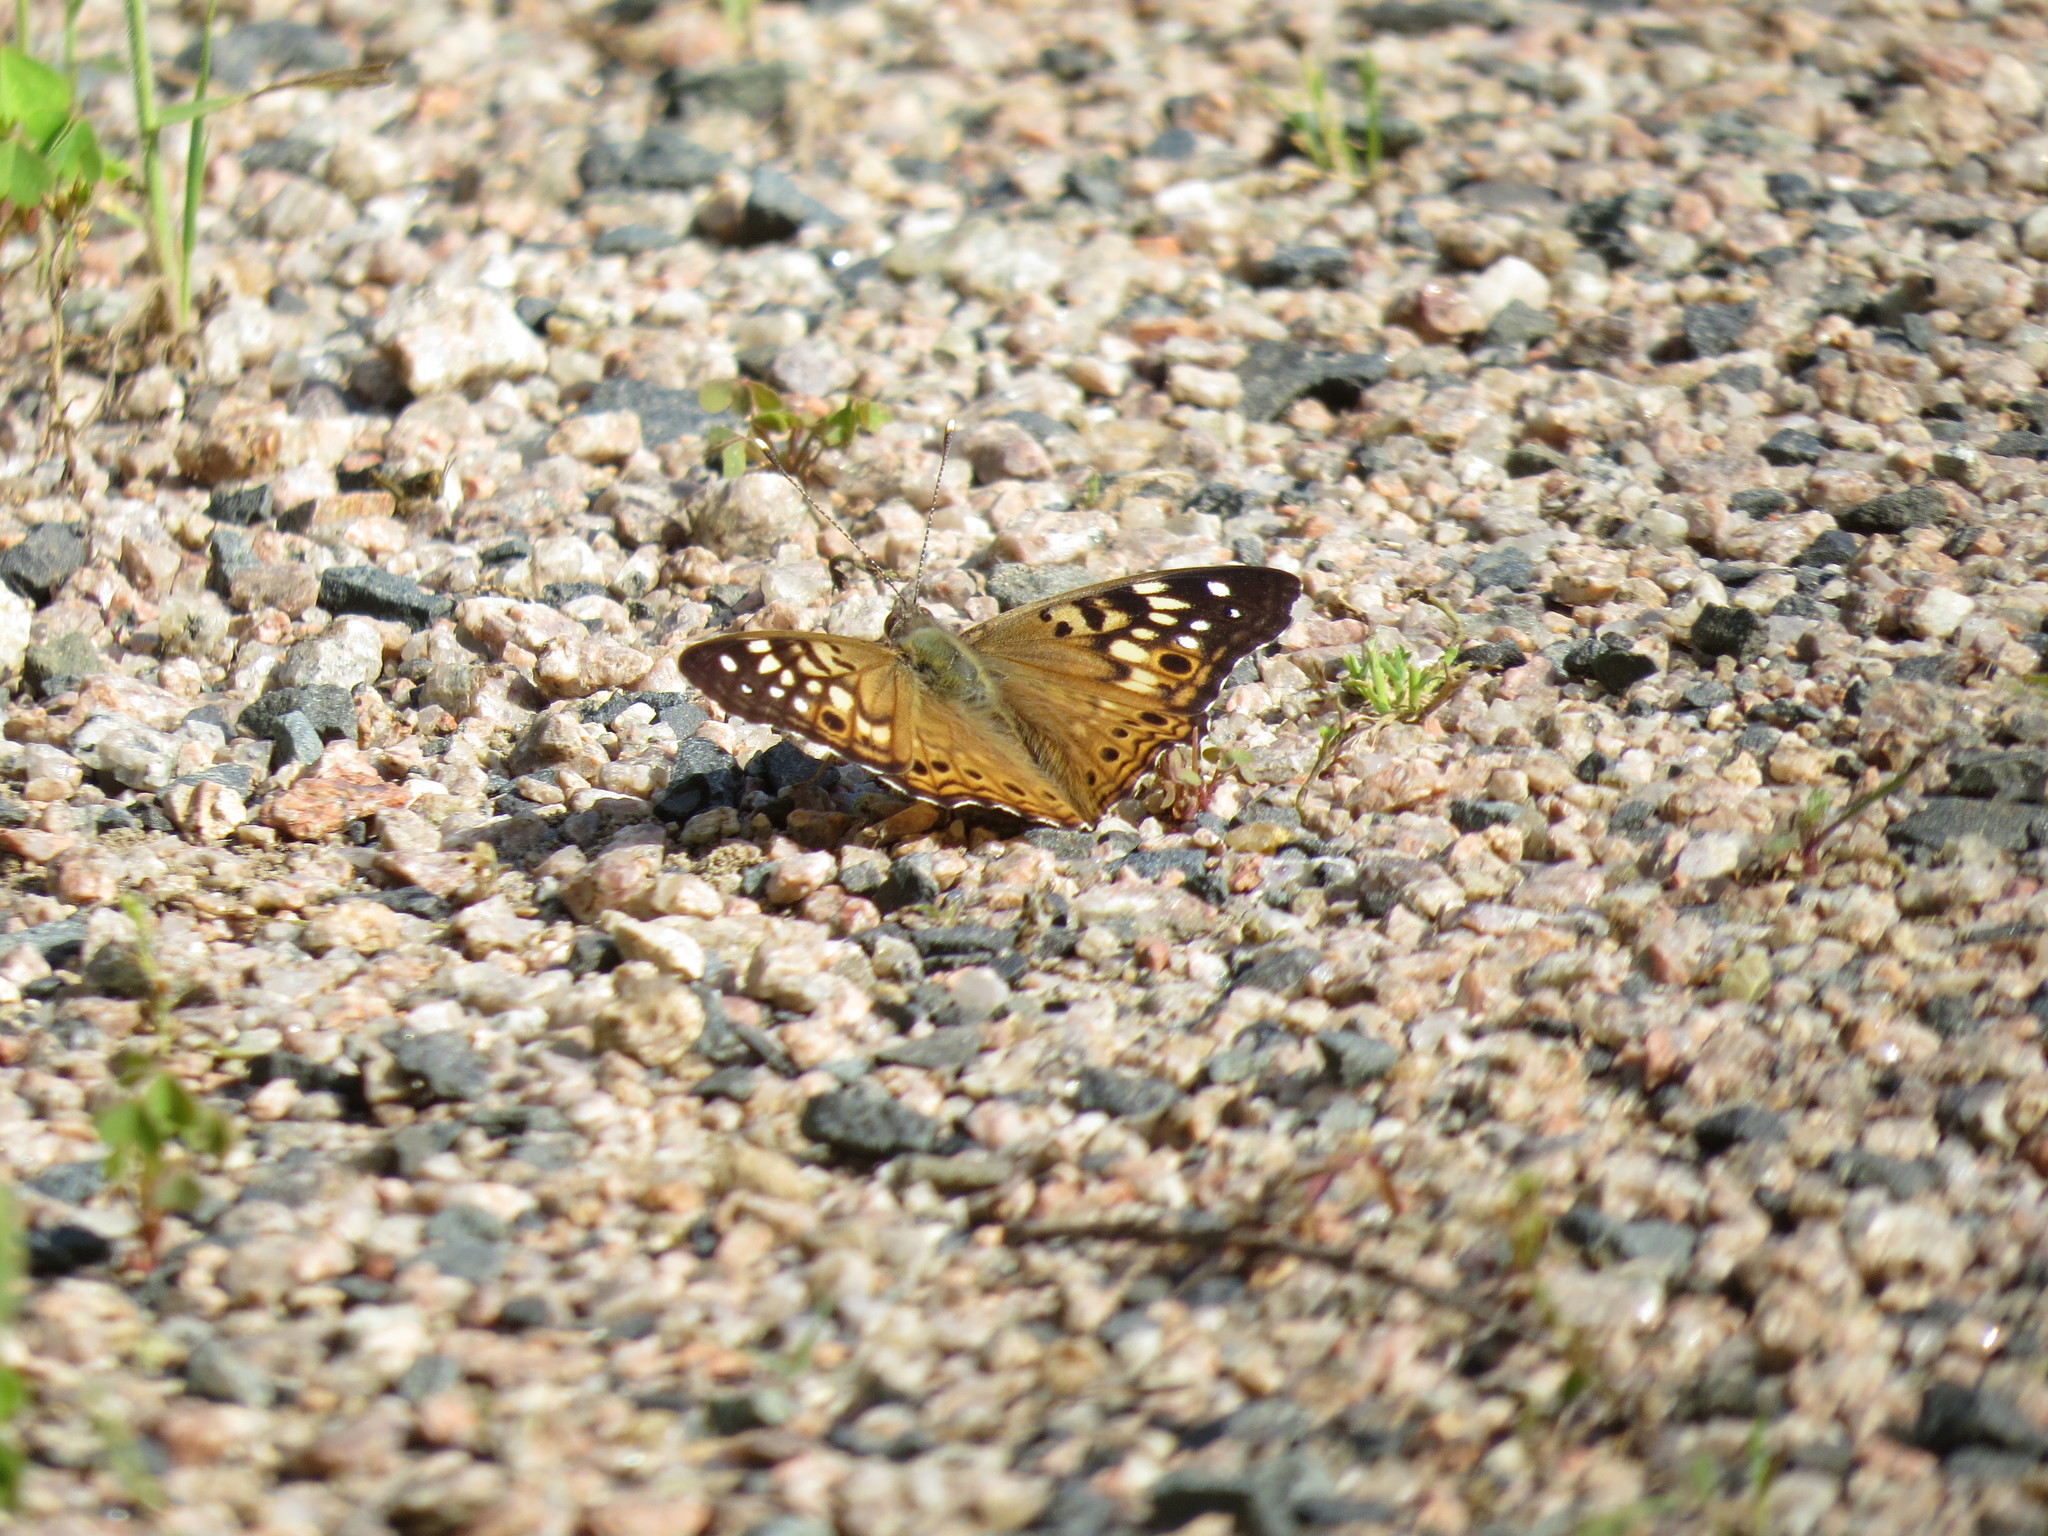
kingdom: Animalia
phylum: Arthropoda
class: Insecta
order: Lepidoptera
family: Nymphalidae
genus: Asterocampa
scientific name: Asterocampa celtis
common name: Hackberry emperor
